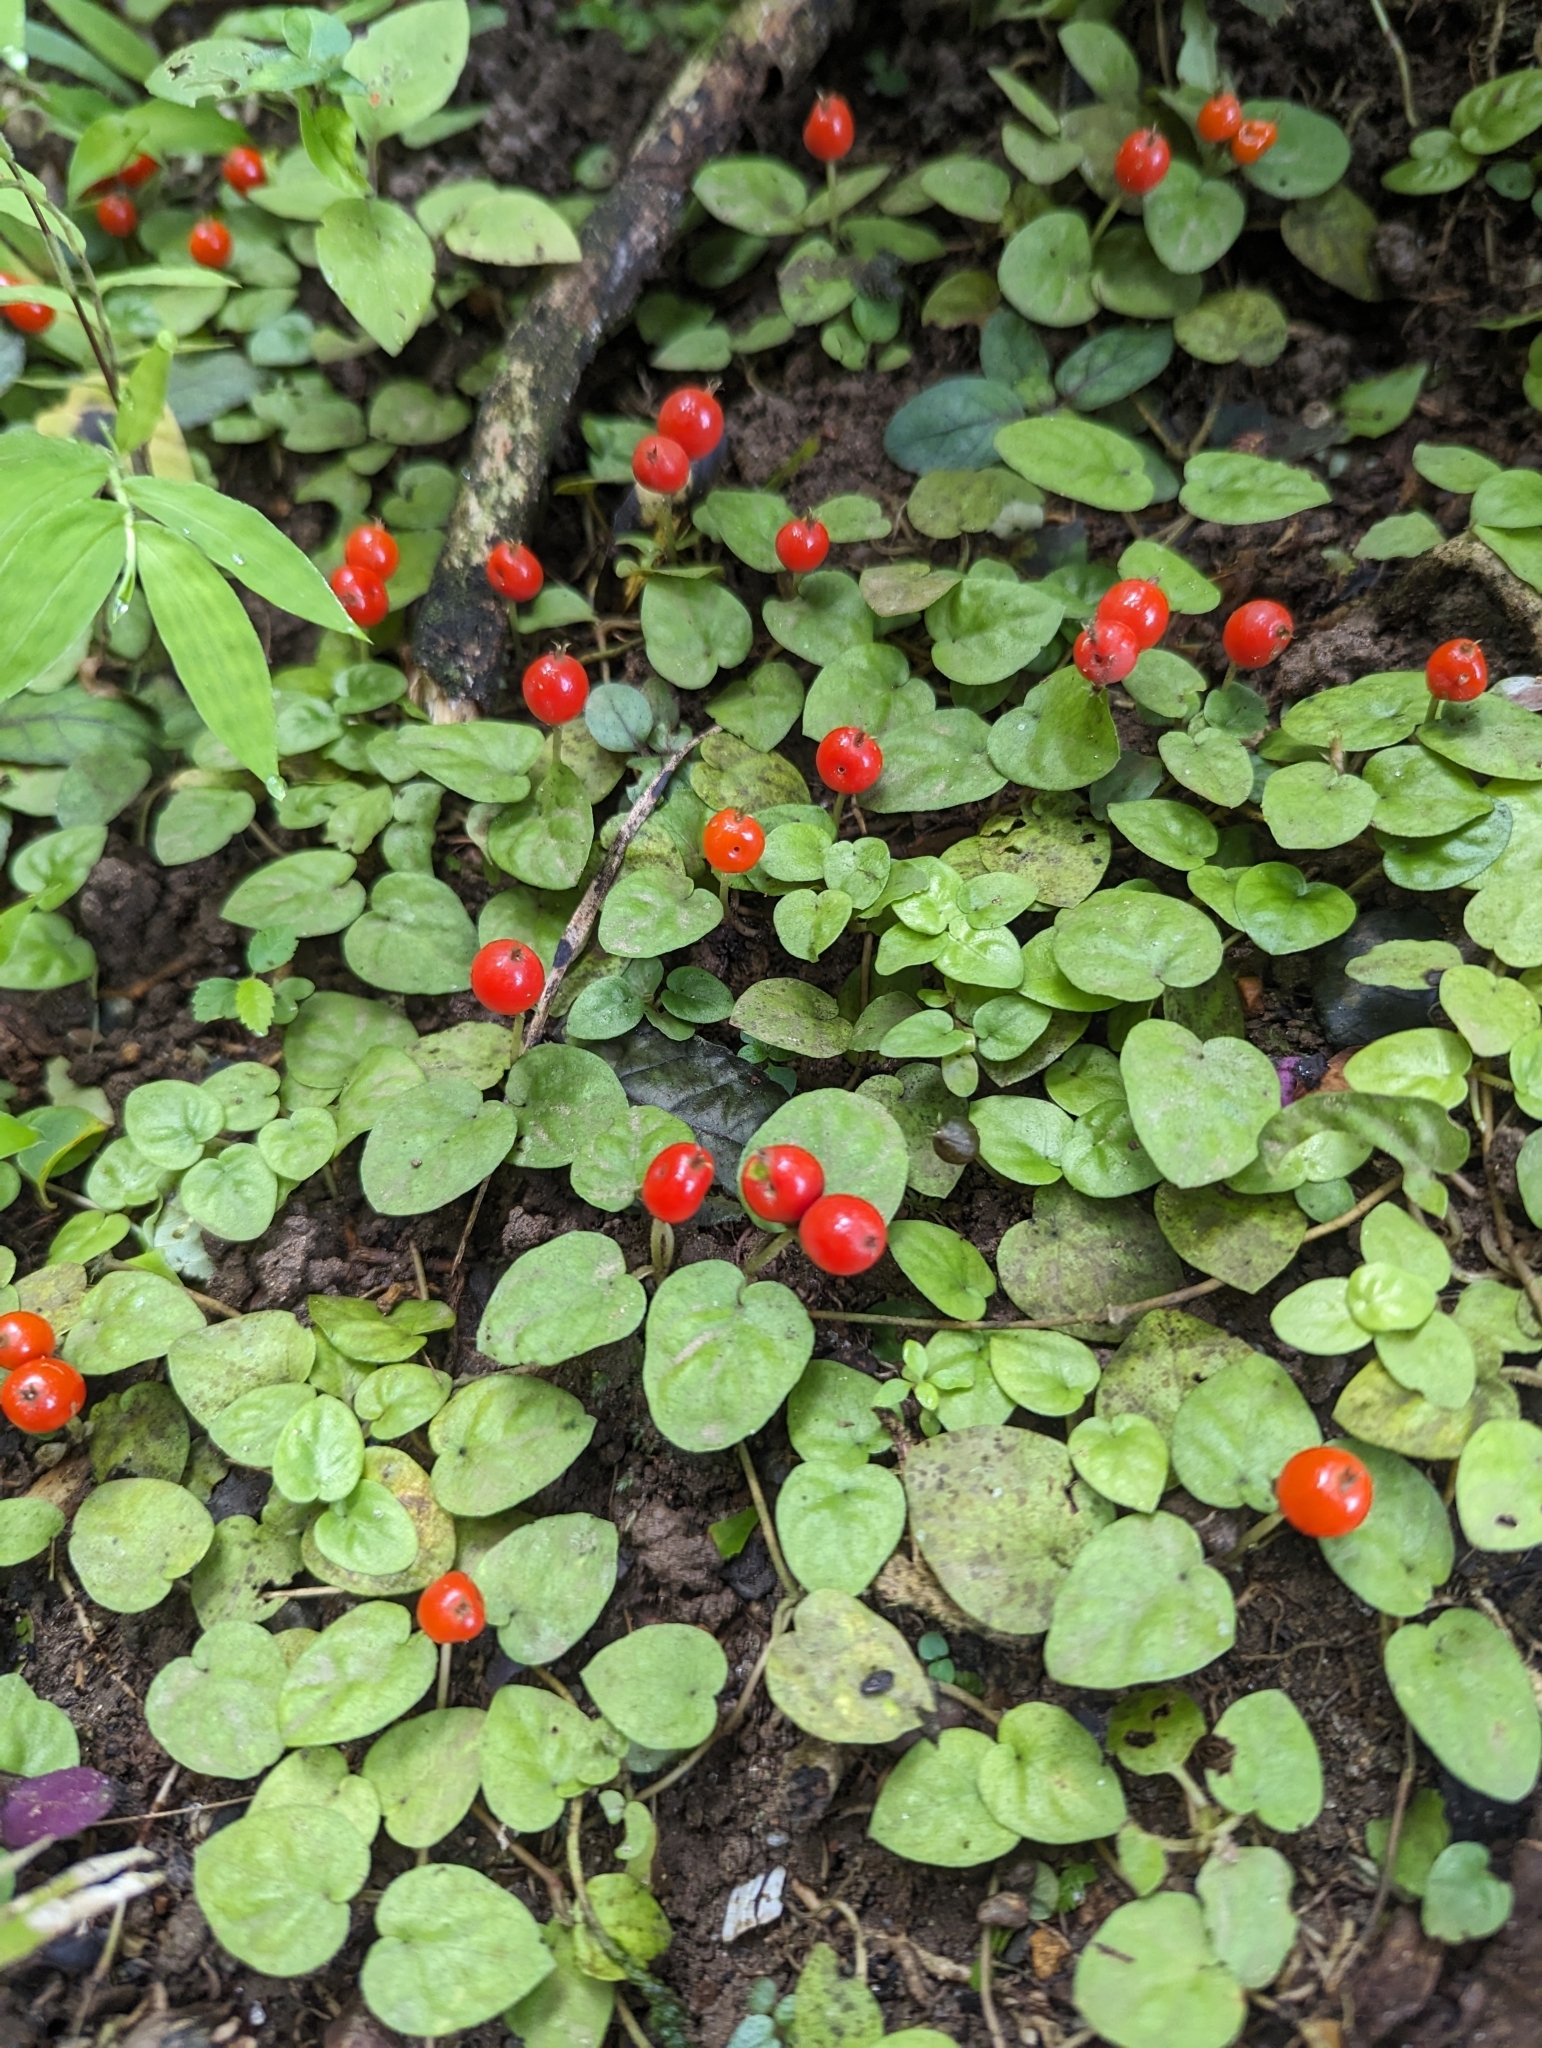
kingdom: Plantae
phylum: Tracheophyta
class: Magnoliopsida
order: Gentianales
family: Rubiaceae
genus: Geophila
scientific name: Geophila repens
